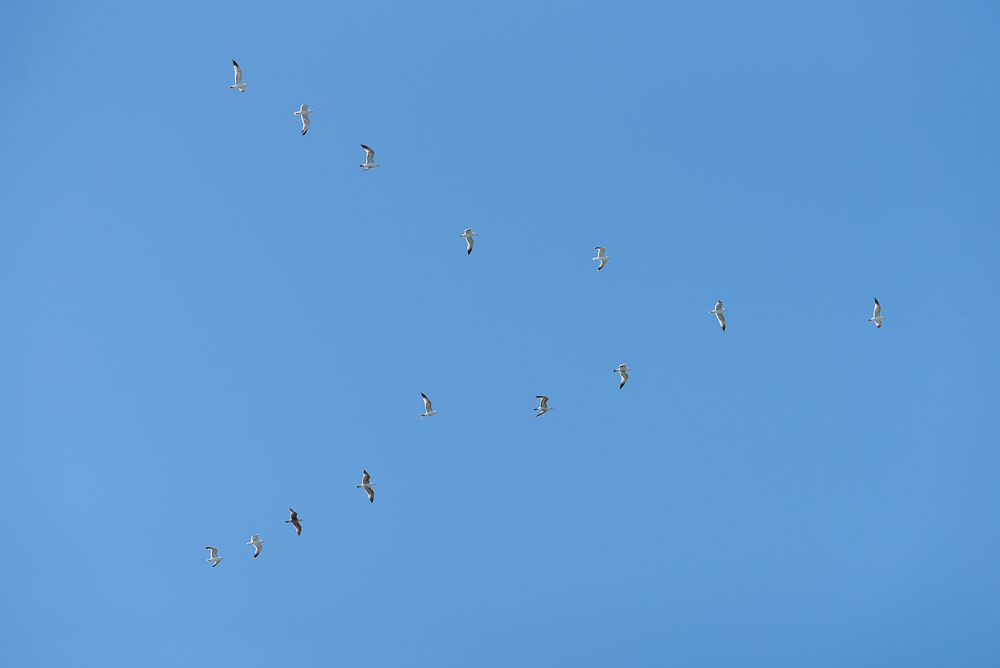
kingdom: Animalia
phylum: Chordata
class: Aves
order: Charadriiformes
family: Laridae
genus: Larus
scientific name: Larus californicus
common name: California gull
